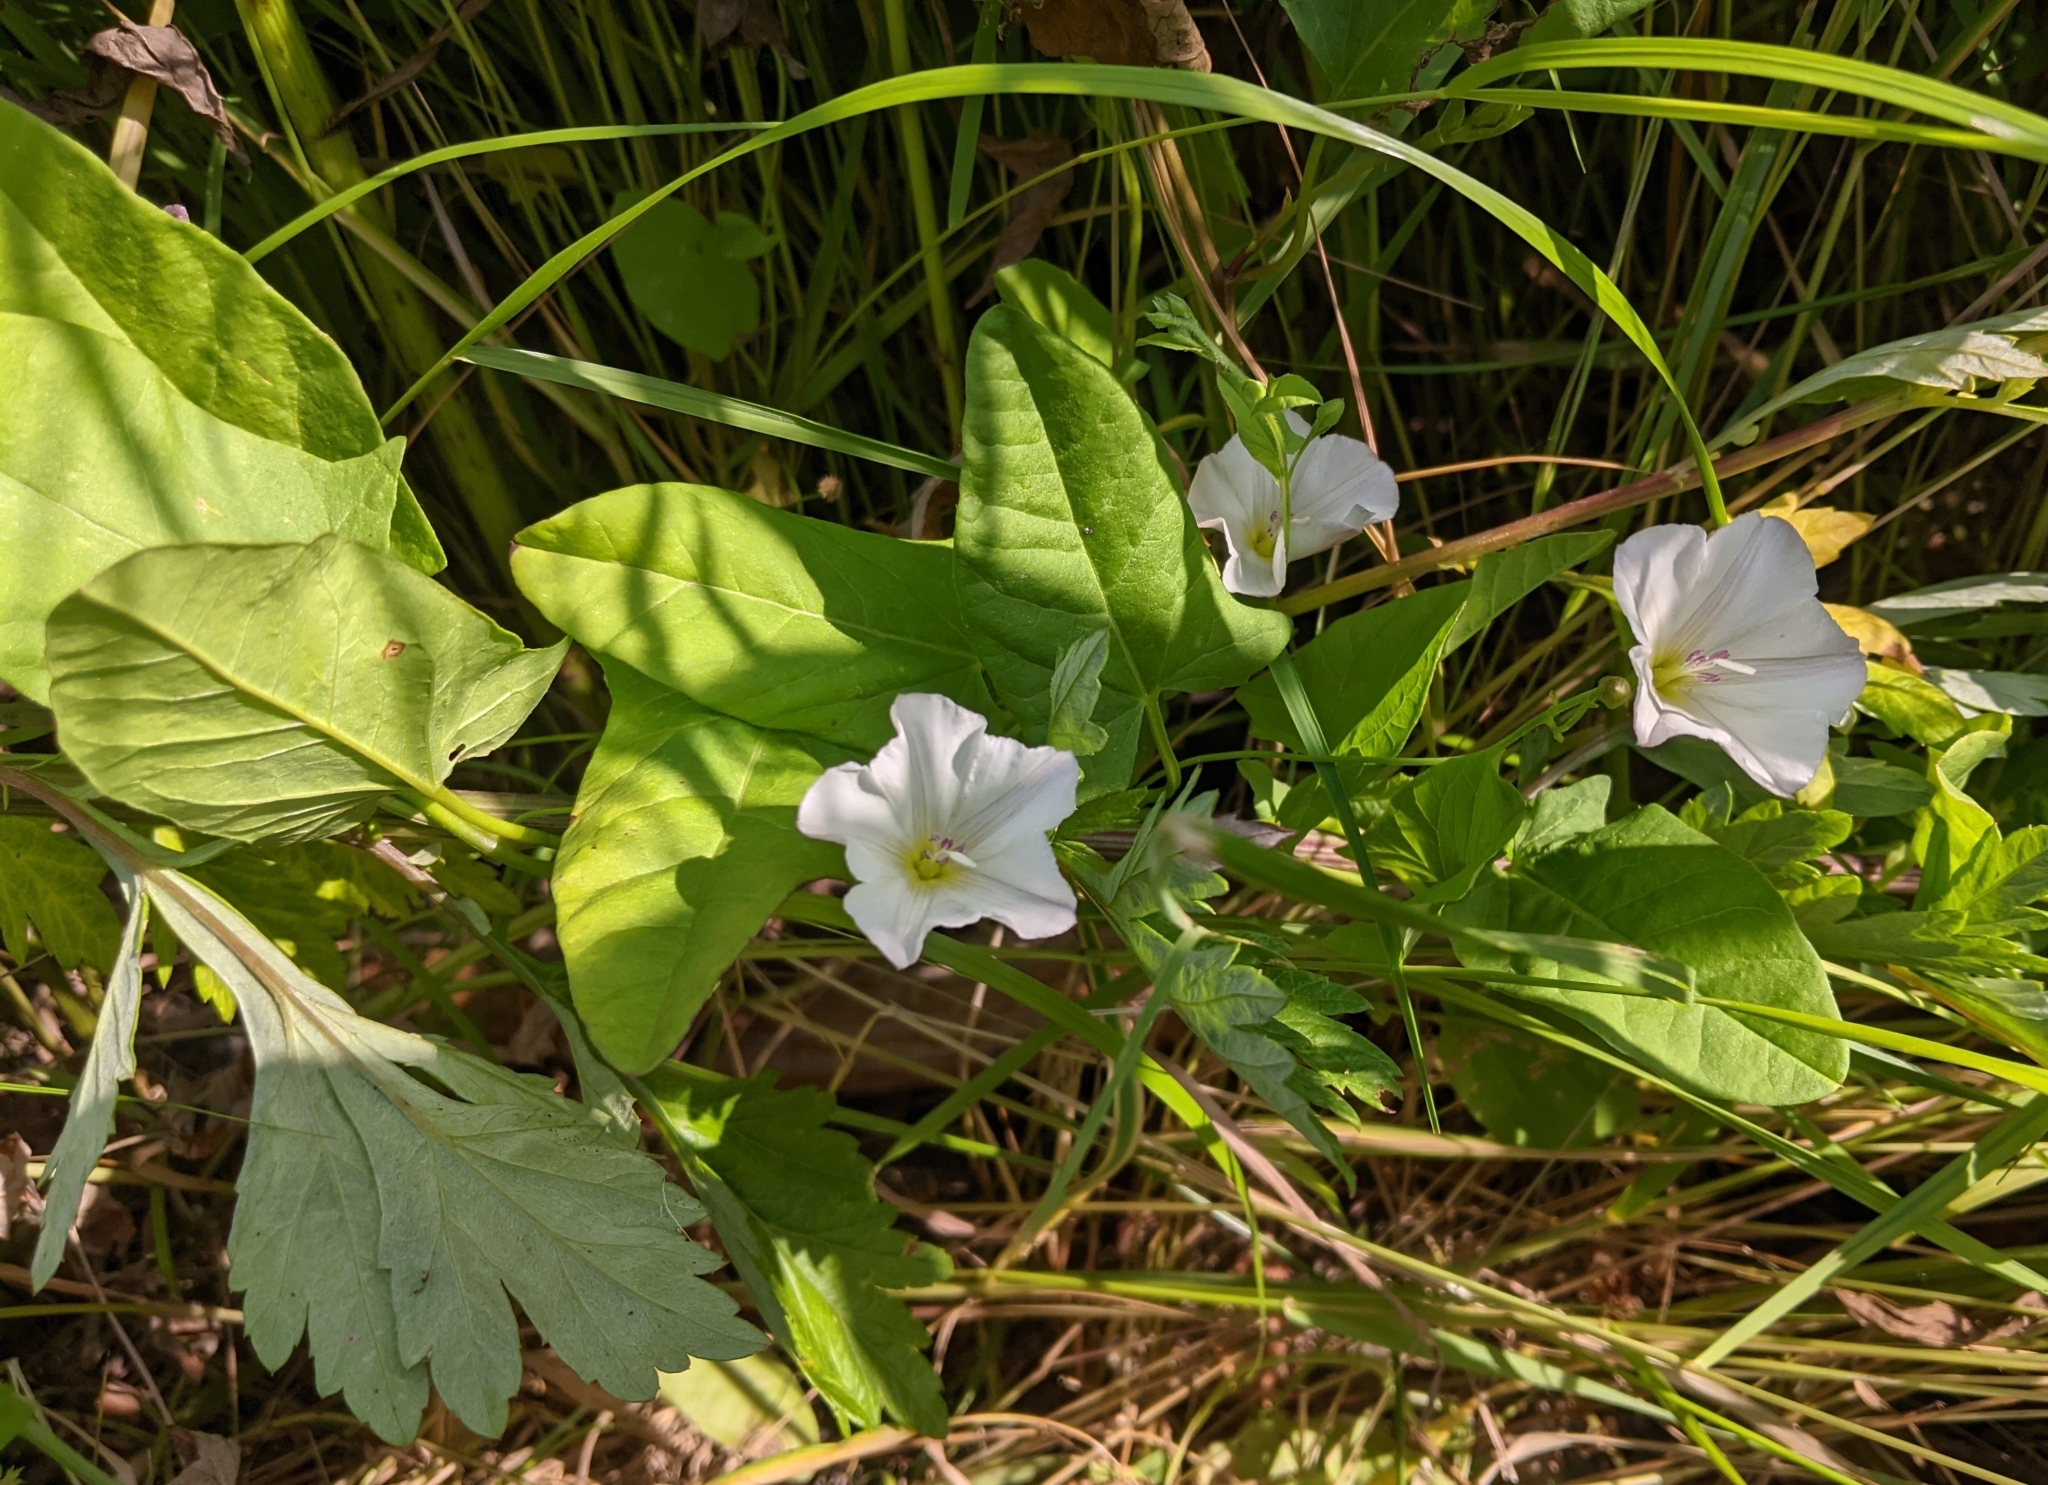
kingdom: Plantae
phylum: Tracheophyta
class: Magnoliopsida
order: Solanales
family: Convolvulaceae
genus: Convolvulus
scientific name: Convolvulus arvensis
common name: Field bindweed
